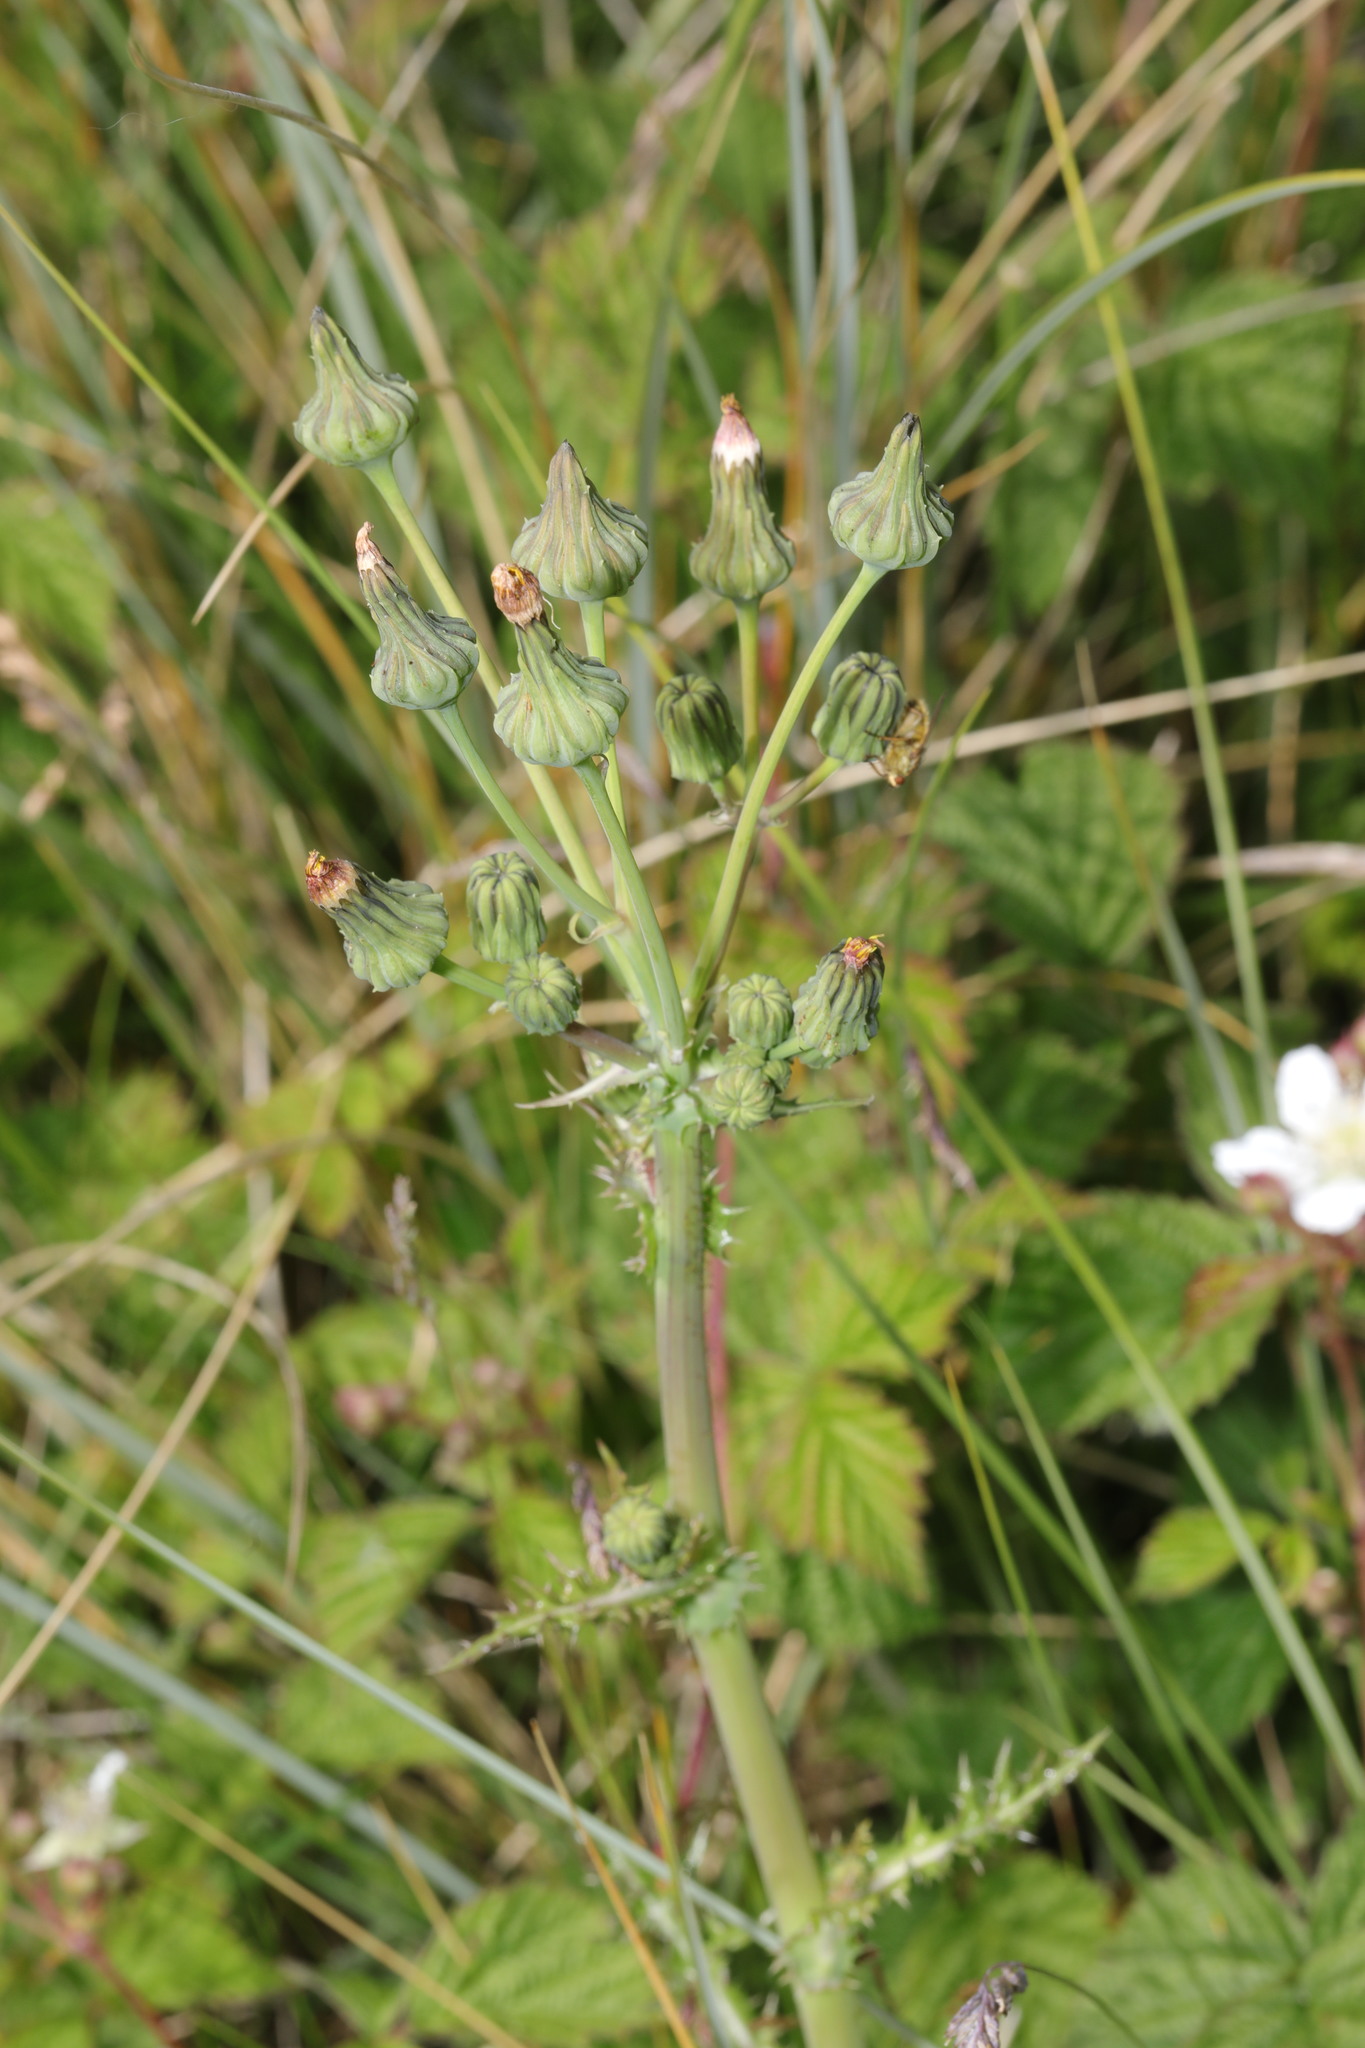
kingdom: Plantae
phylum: Tracheophyta
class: Magnoliopsida
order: Asterales
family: Asteraceae
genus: Sonchus
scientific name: Sonchus asper
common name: Prickly sow-thistle
